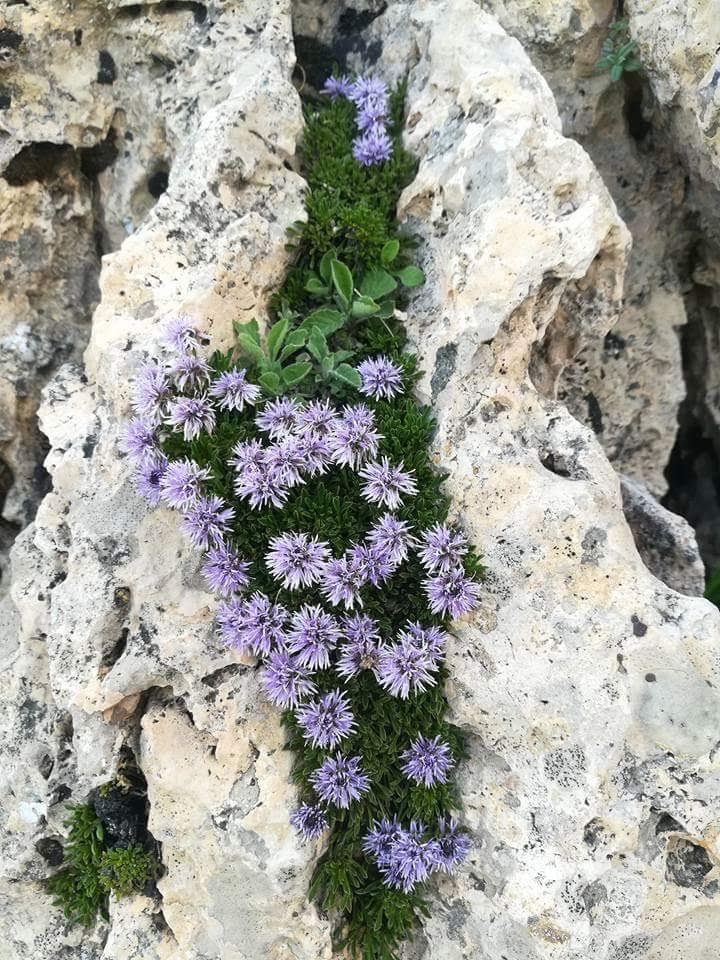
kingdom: Plantae
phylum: Tracheophyta
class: Magnoliopsida
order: Lamiales
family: Plantaginaceae
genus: Globularia
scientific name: Globularia repens
